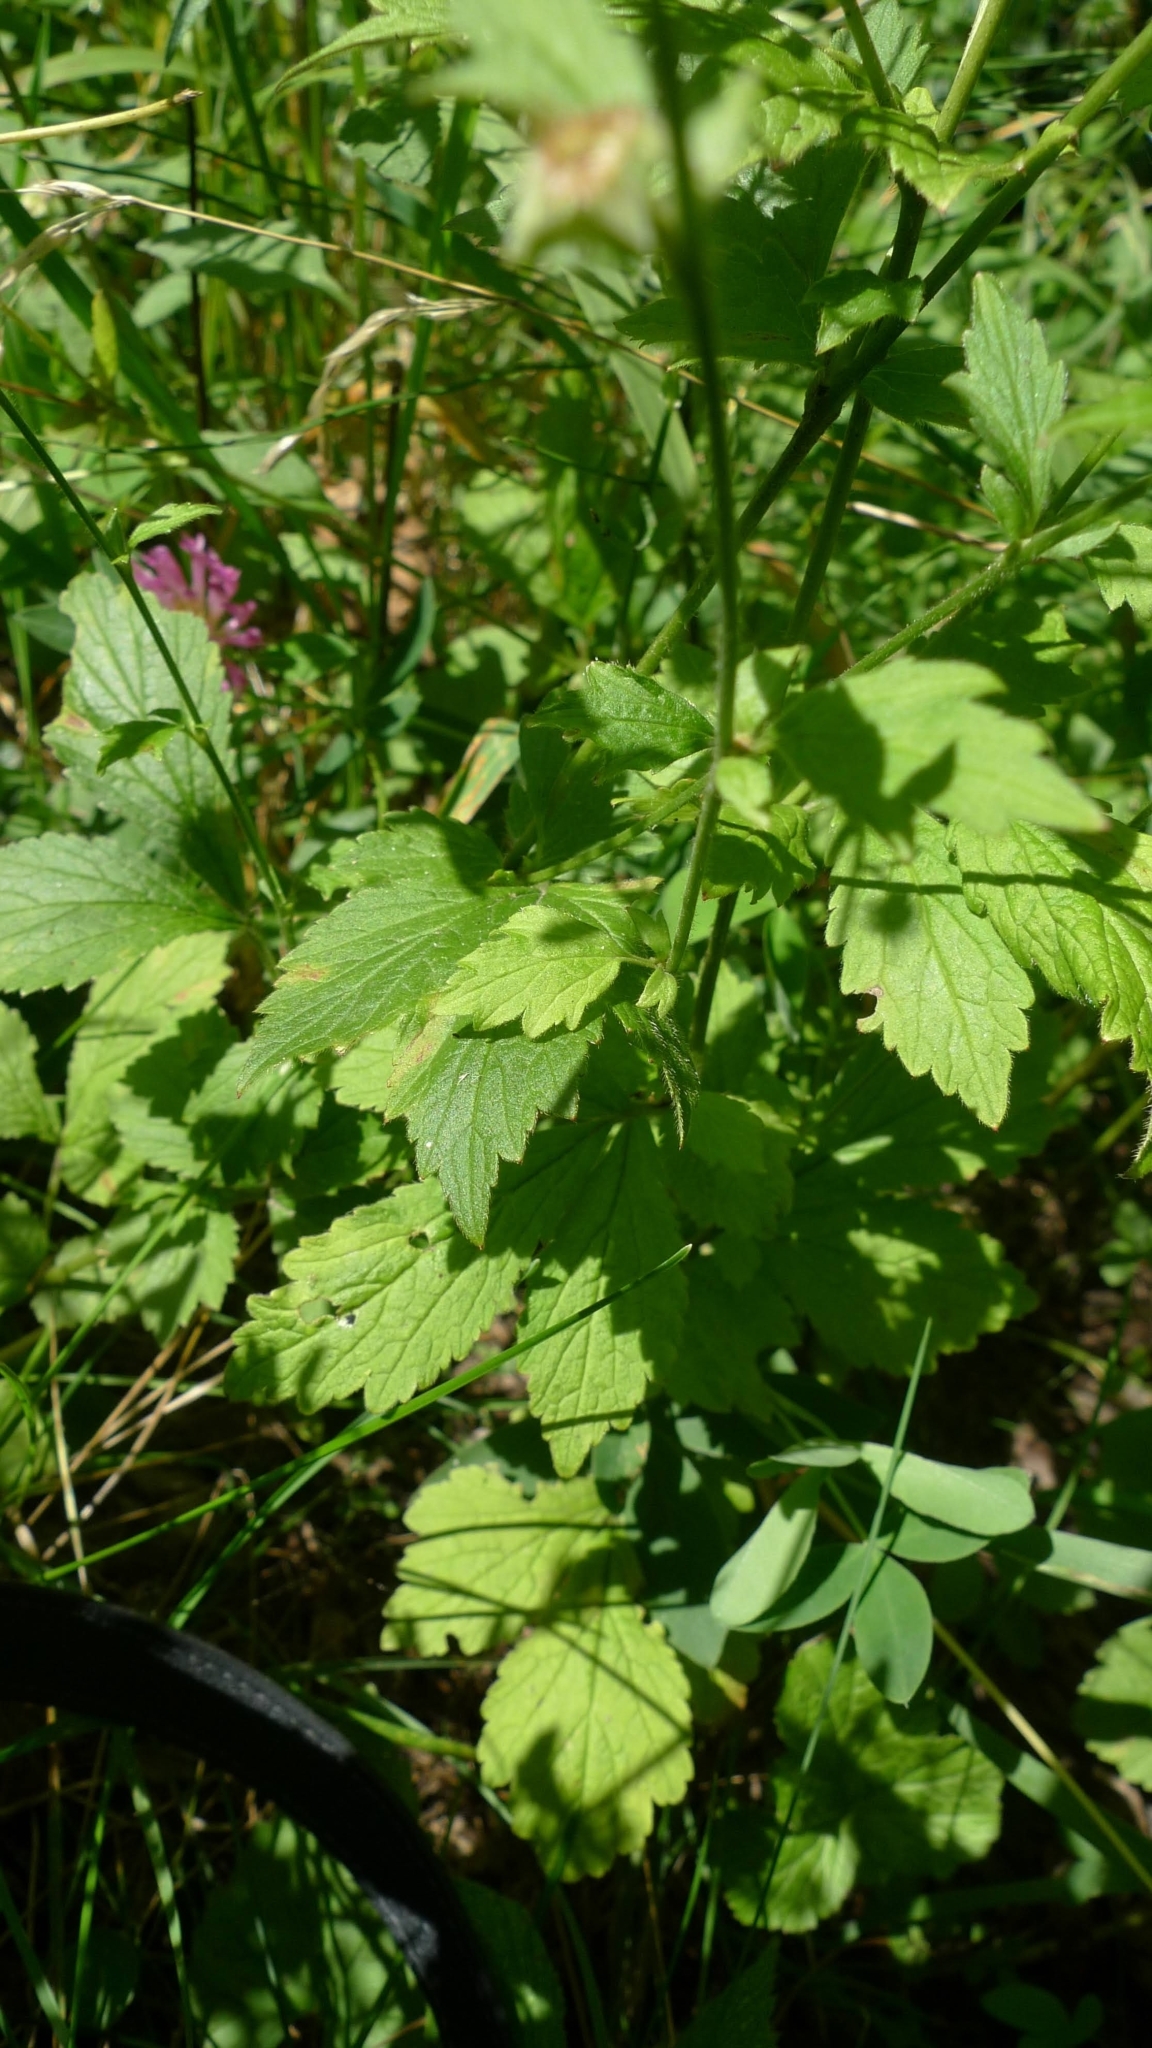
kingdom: Plantae
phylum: Tracheophyta
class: Magnoliopsida
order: Rosales
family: Rosaceae
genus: Geum
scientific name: Geum urbanum
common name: Wood avens
